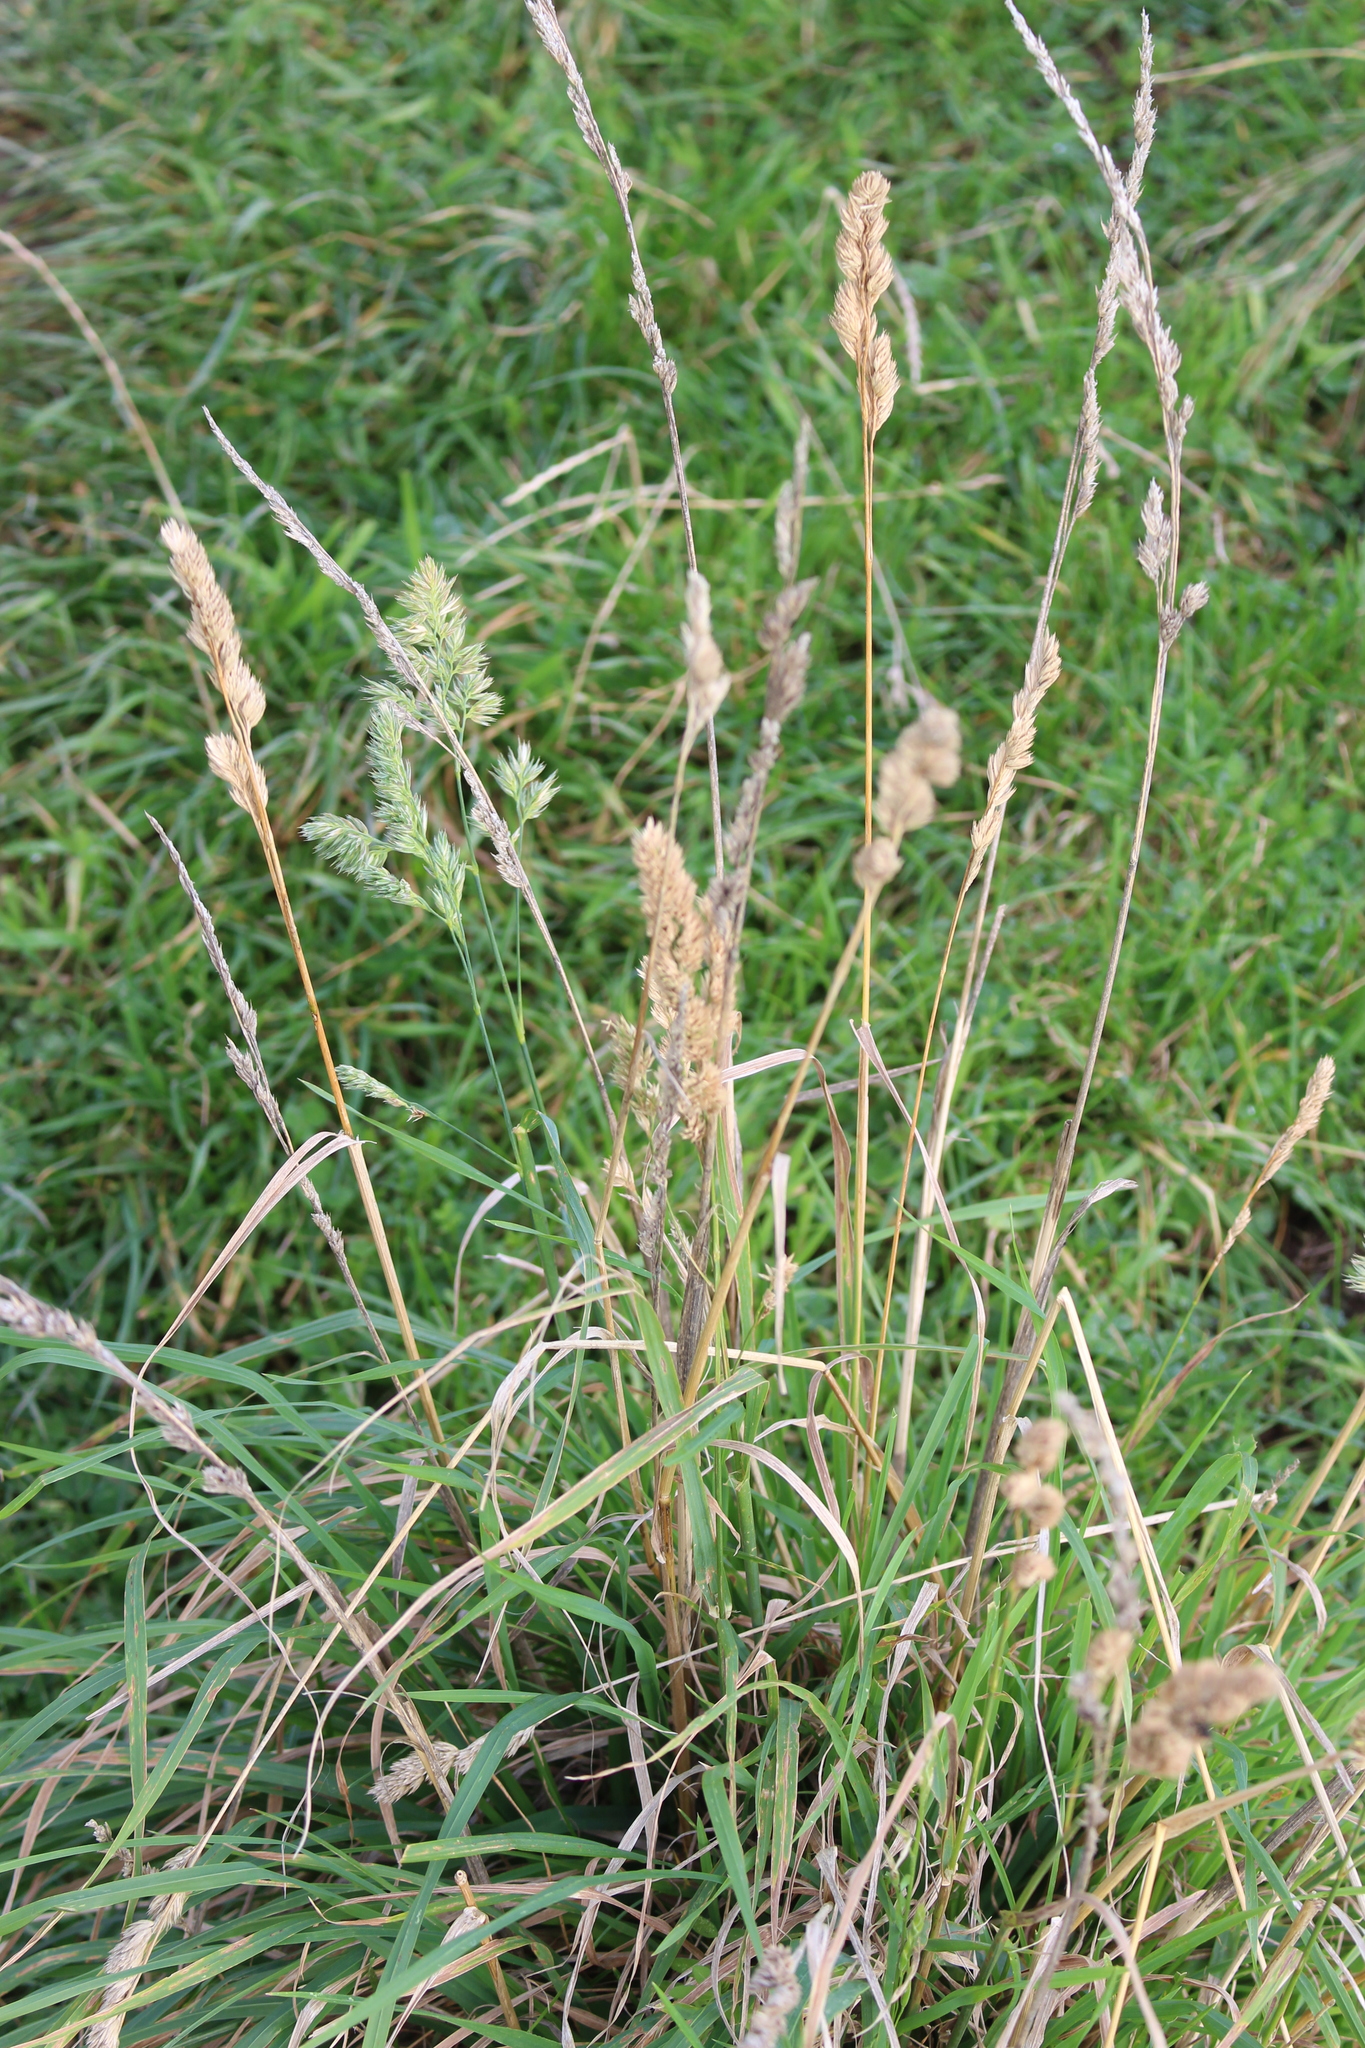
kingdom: Plantae
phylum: Tracheophyta
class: Liliopsida
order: Poales
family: Poaceae
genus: Dactylis
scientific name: Dactylis glomerata
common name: Orchardgrass
